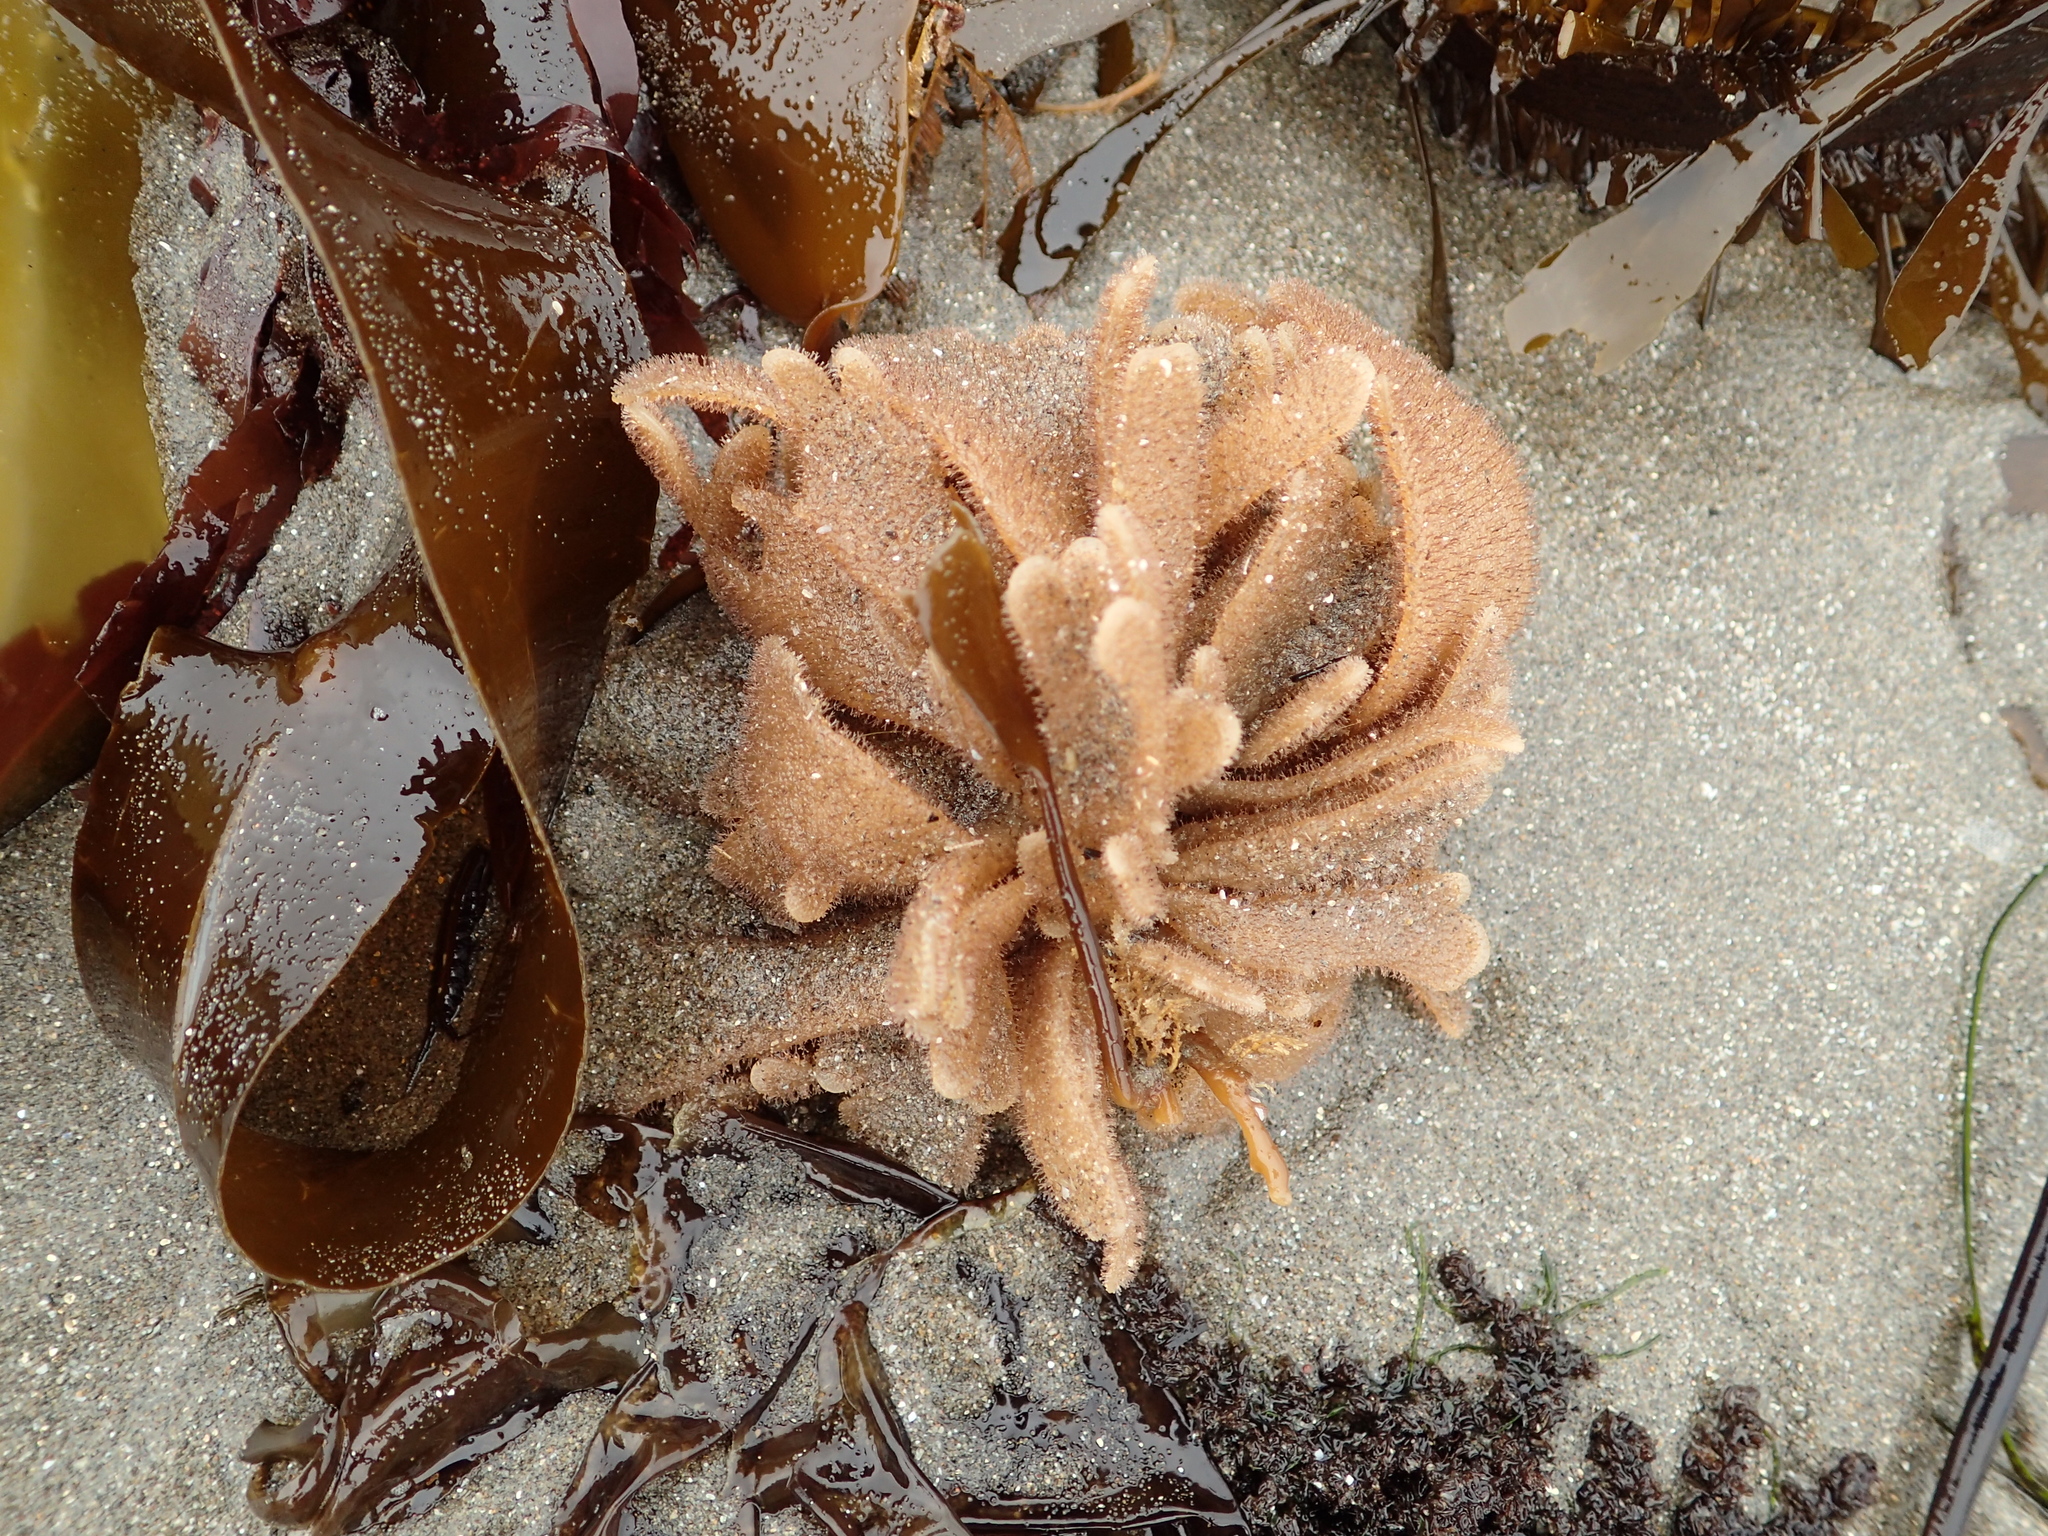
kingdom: Animalia
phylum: Bryozoa
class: Gymnolaemata
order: Ctenostomatida
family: Flustrellidridae
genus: Flustrellidra
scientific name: Flustrellidra corniculata
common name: Spiny leather bryozoan
